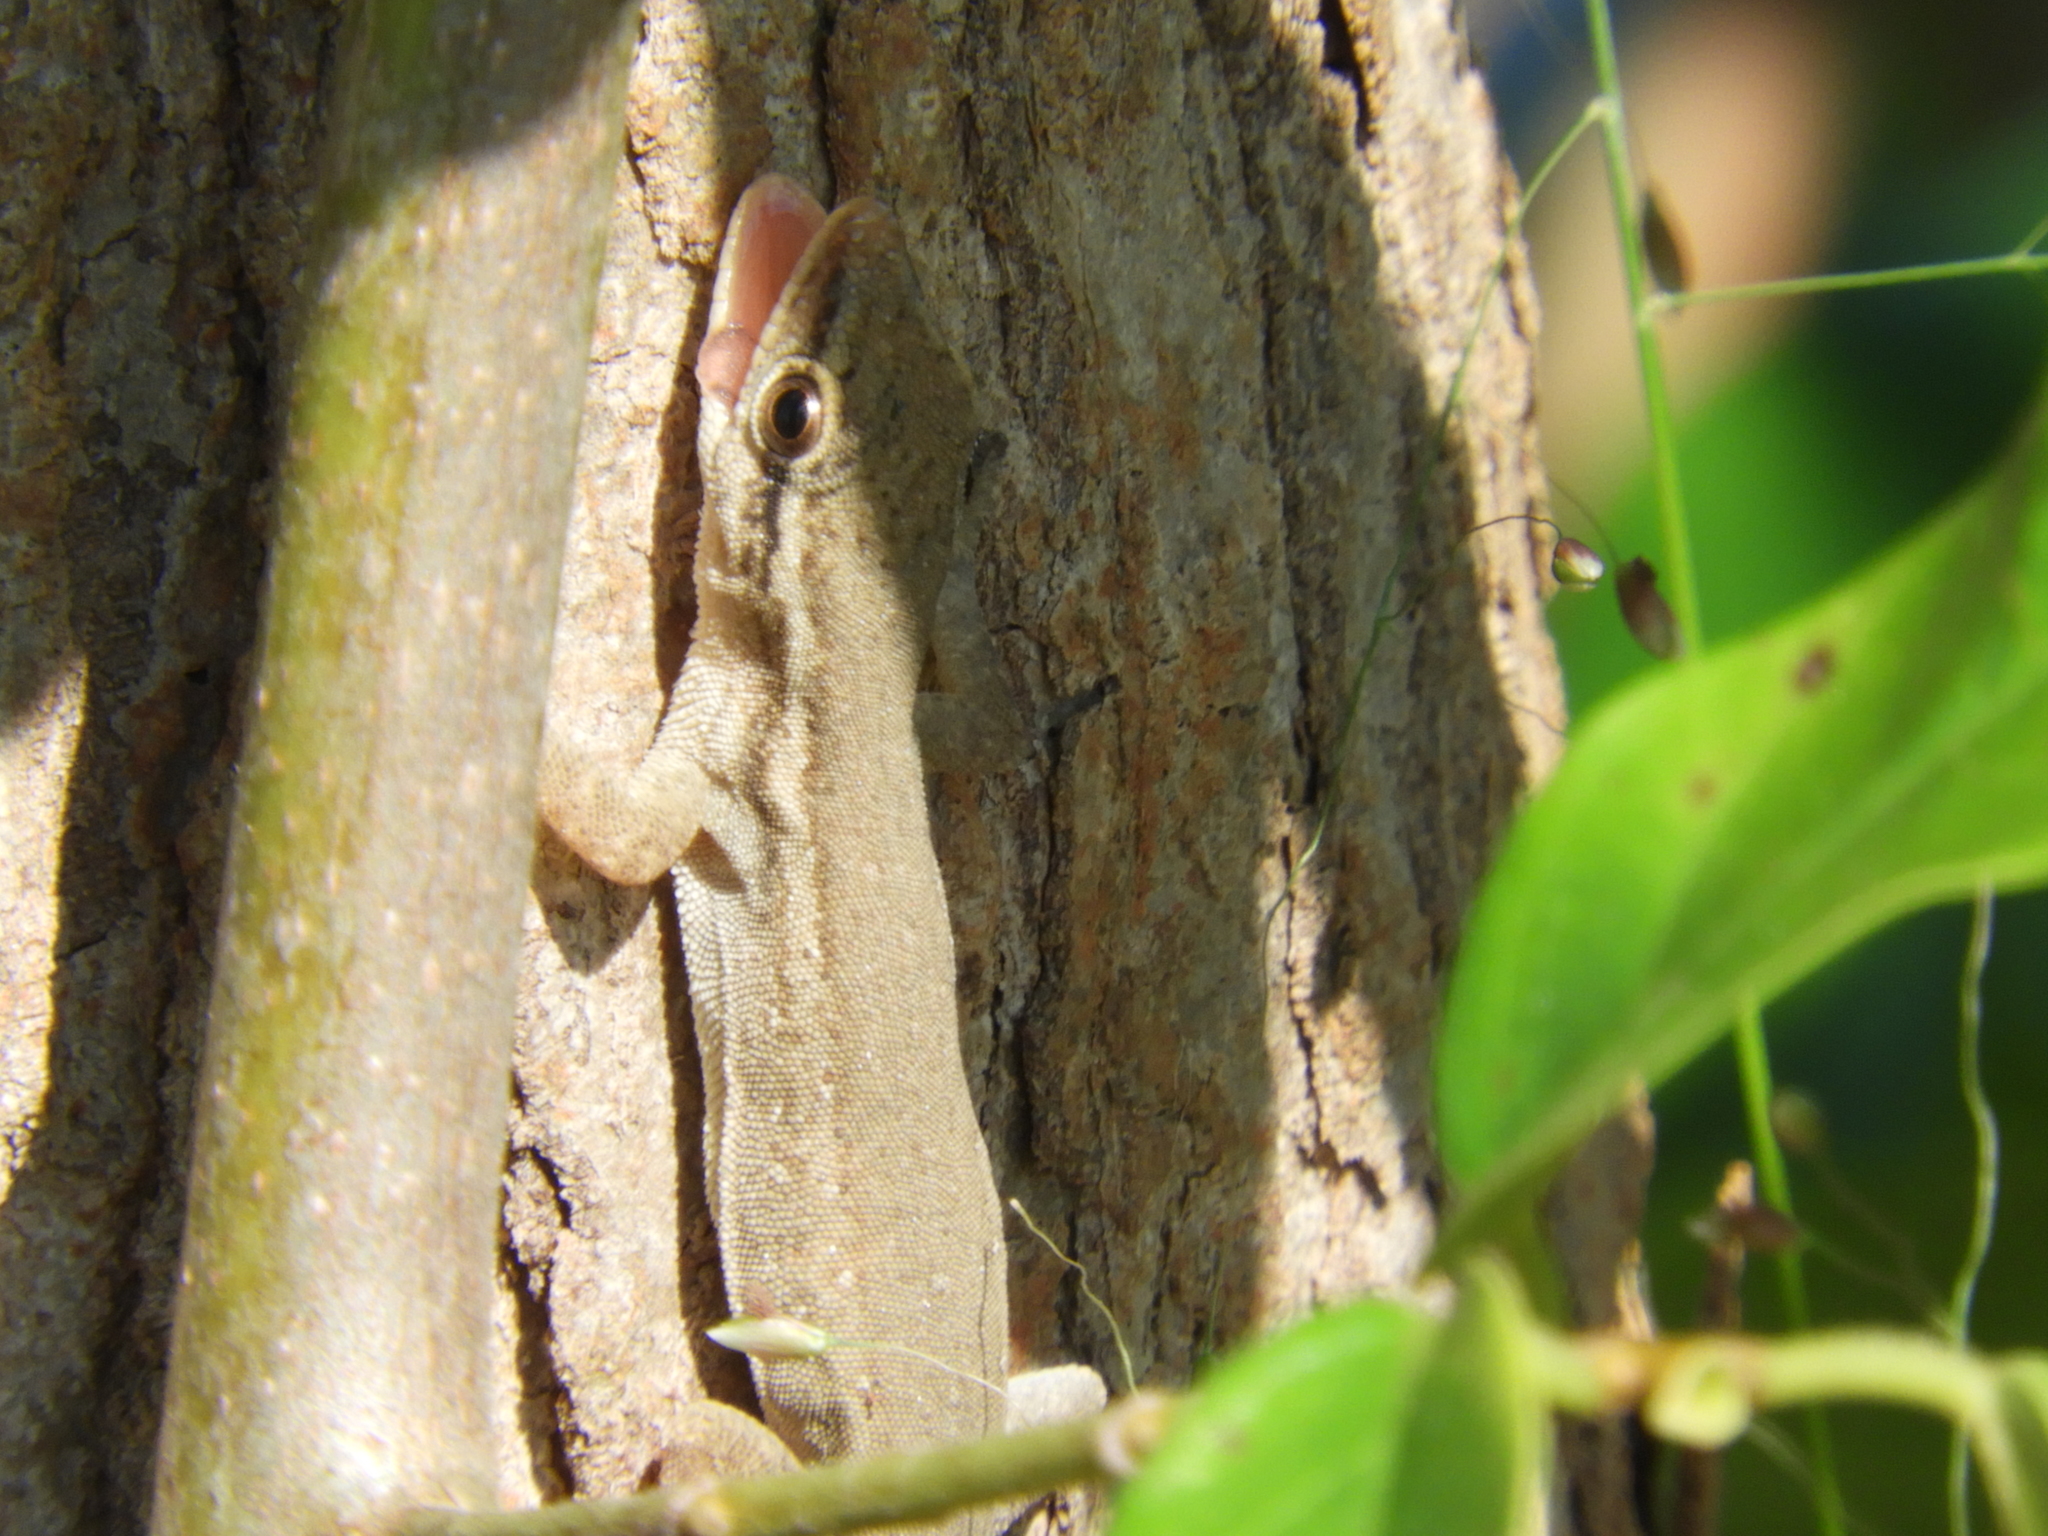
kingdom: Animalia
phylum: Chordata
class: Squamata
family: Gekkonidae
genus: Lygodactylus
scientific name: Lygodactylus capensis
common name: Cape dwarf gecko
